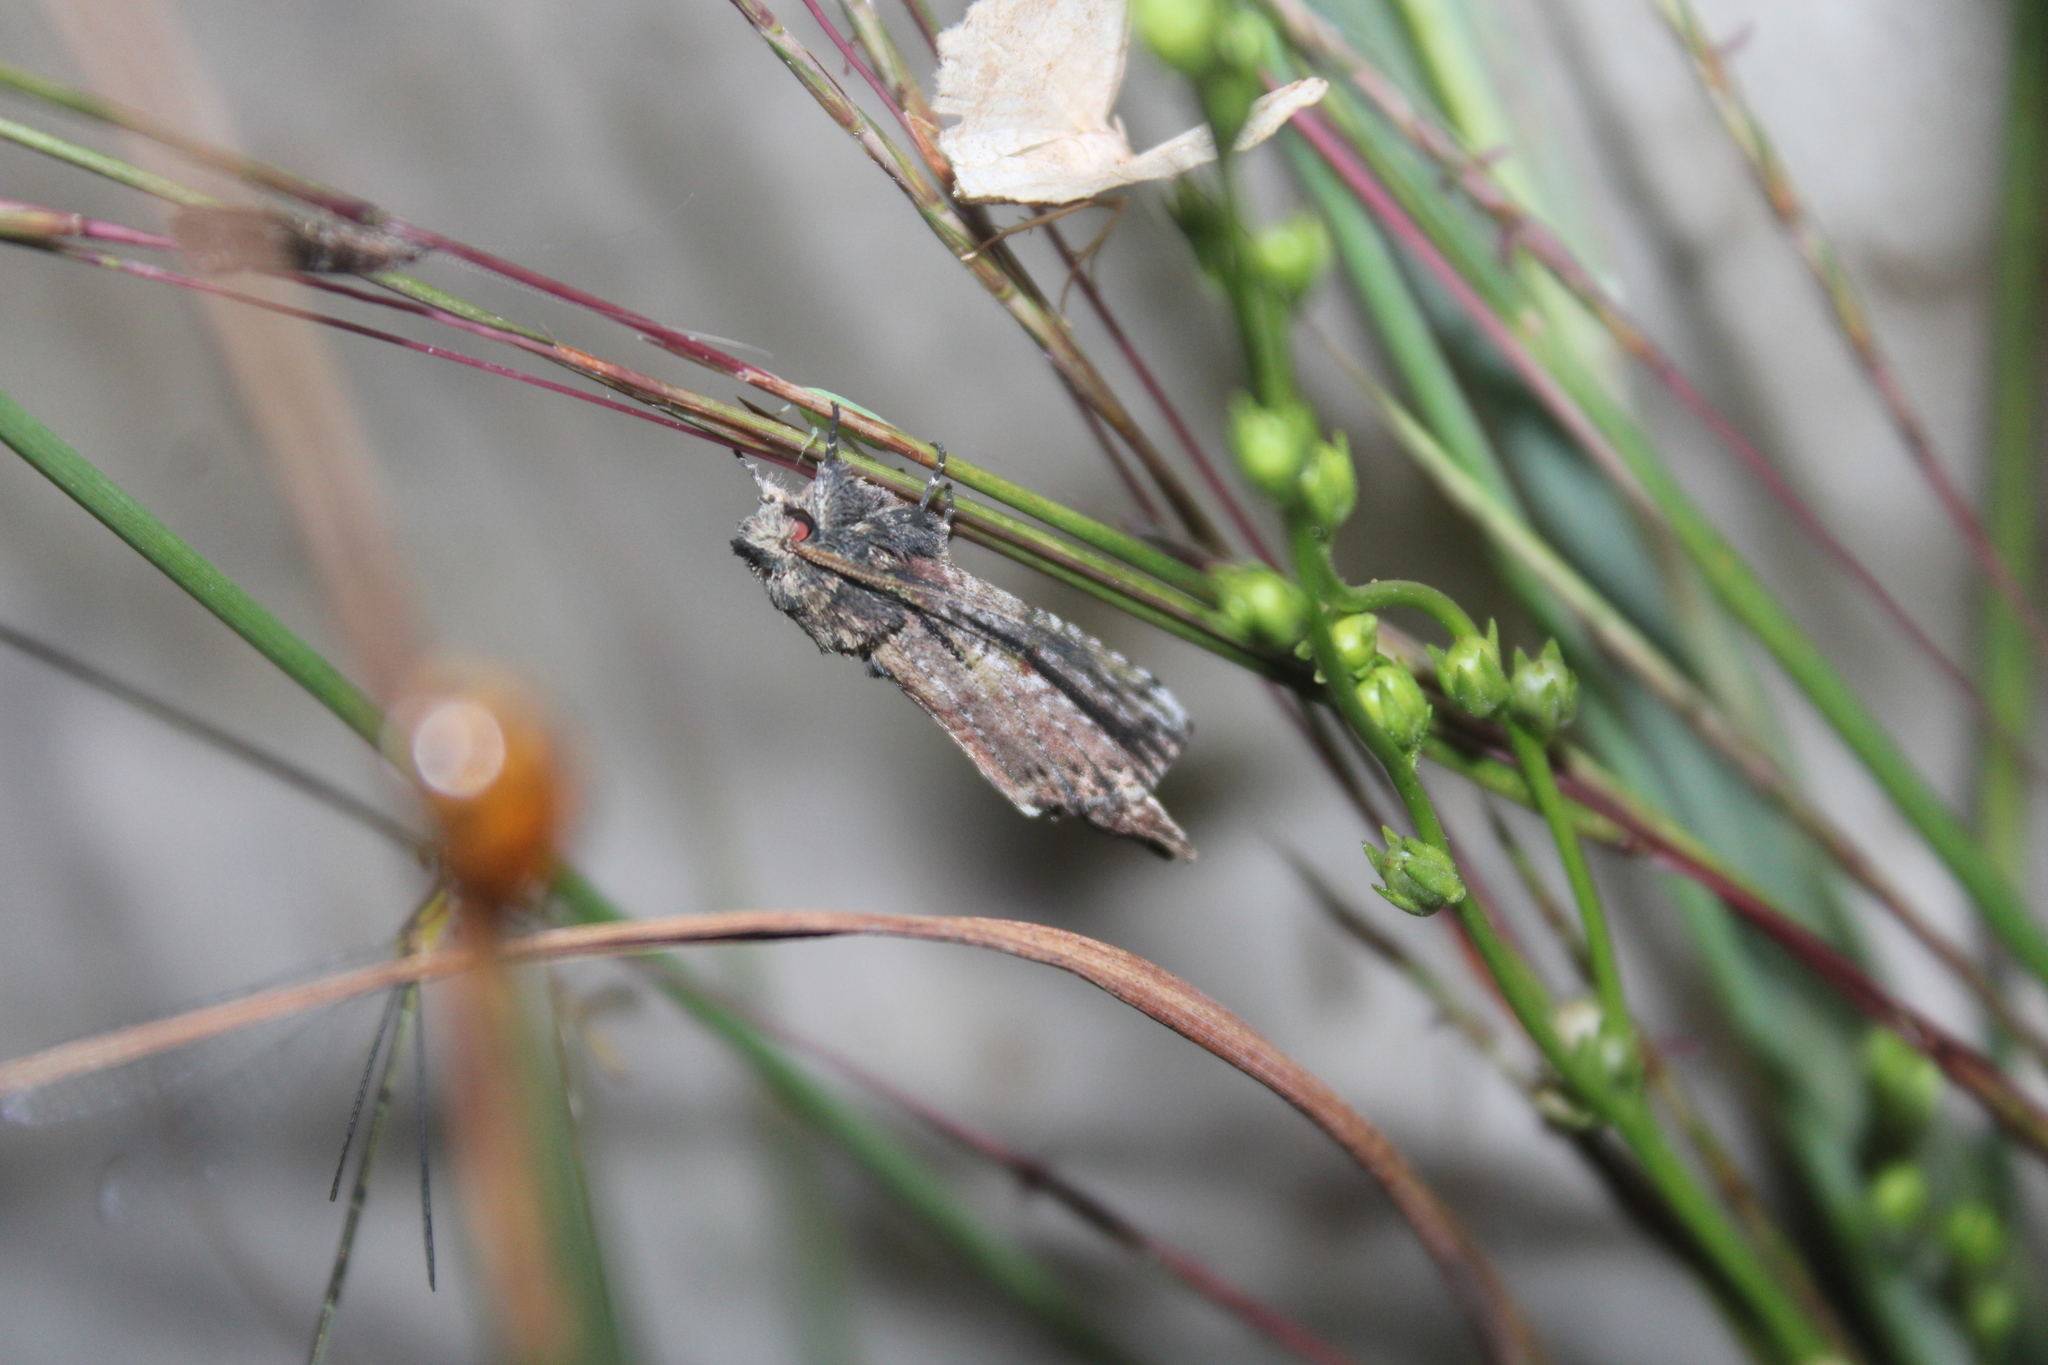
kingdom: Animalia
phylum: Arthropoda
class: Insecta
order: Lepidoptera
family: Notodontidae
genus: Schizura
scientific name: Schizura ipomaeae
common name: Morning-glory prominent
